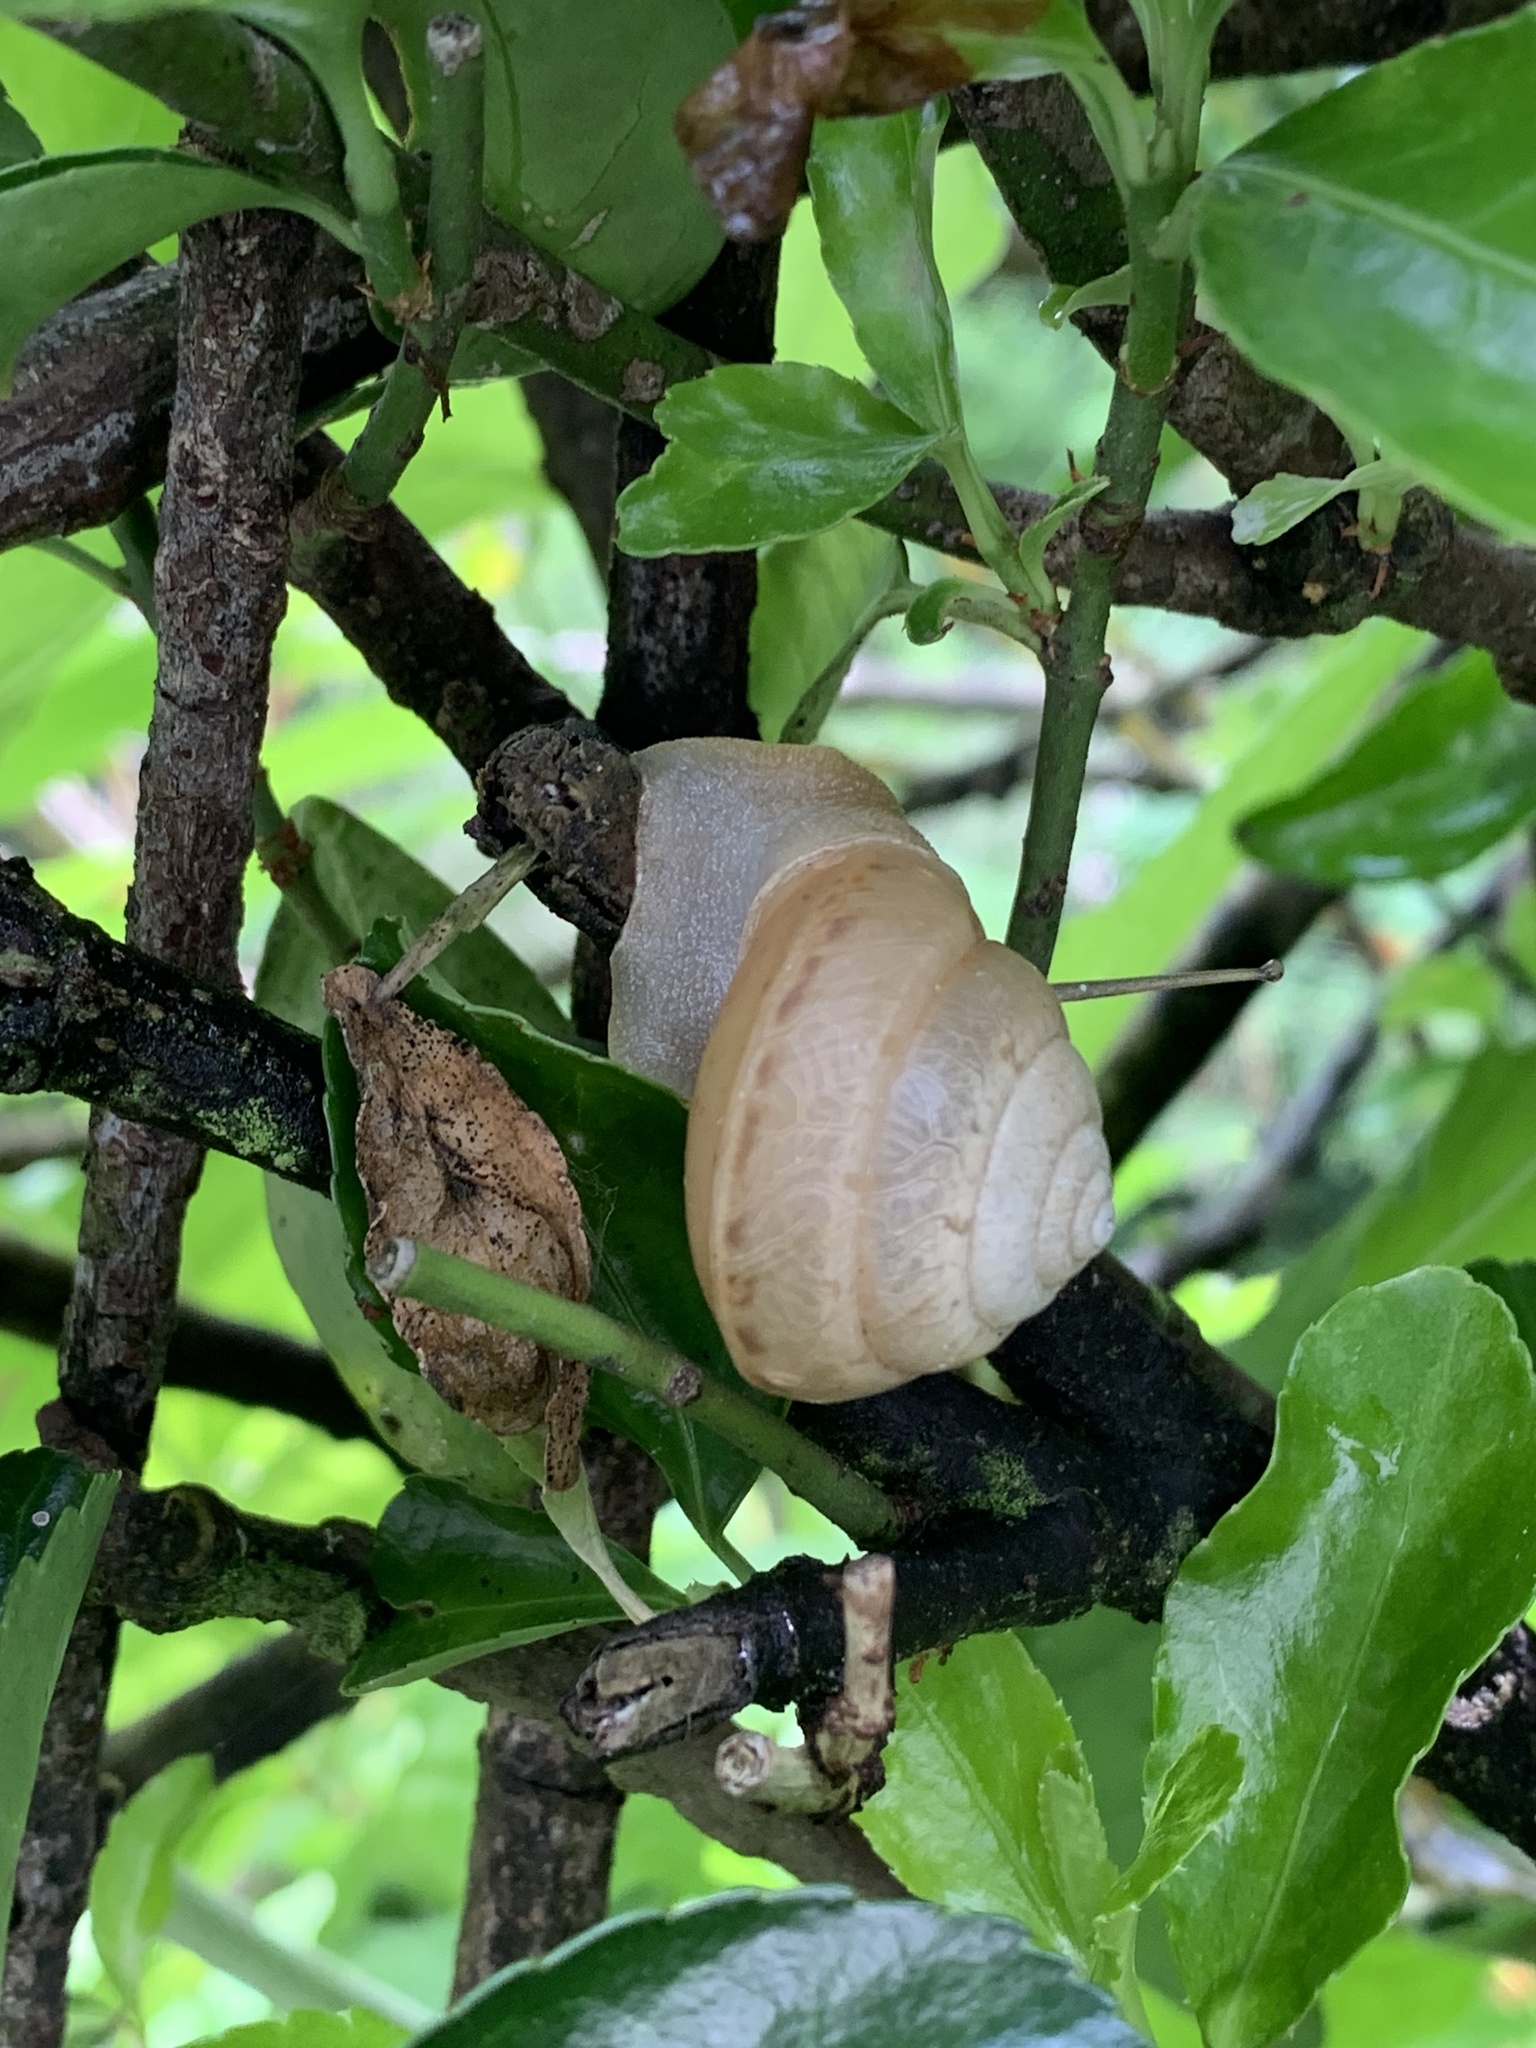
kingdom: Animalia
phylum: Mollusca
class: Gastropoda
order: Stylommatophora
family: Camaenidae
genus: Satsuma
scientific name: Satsuma japonica
